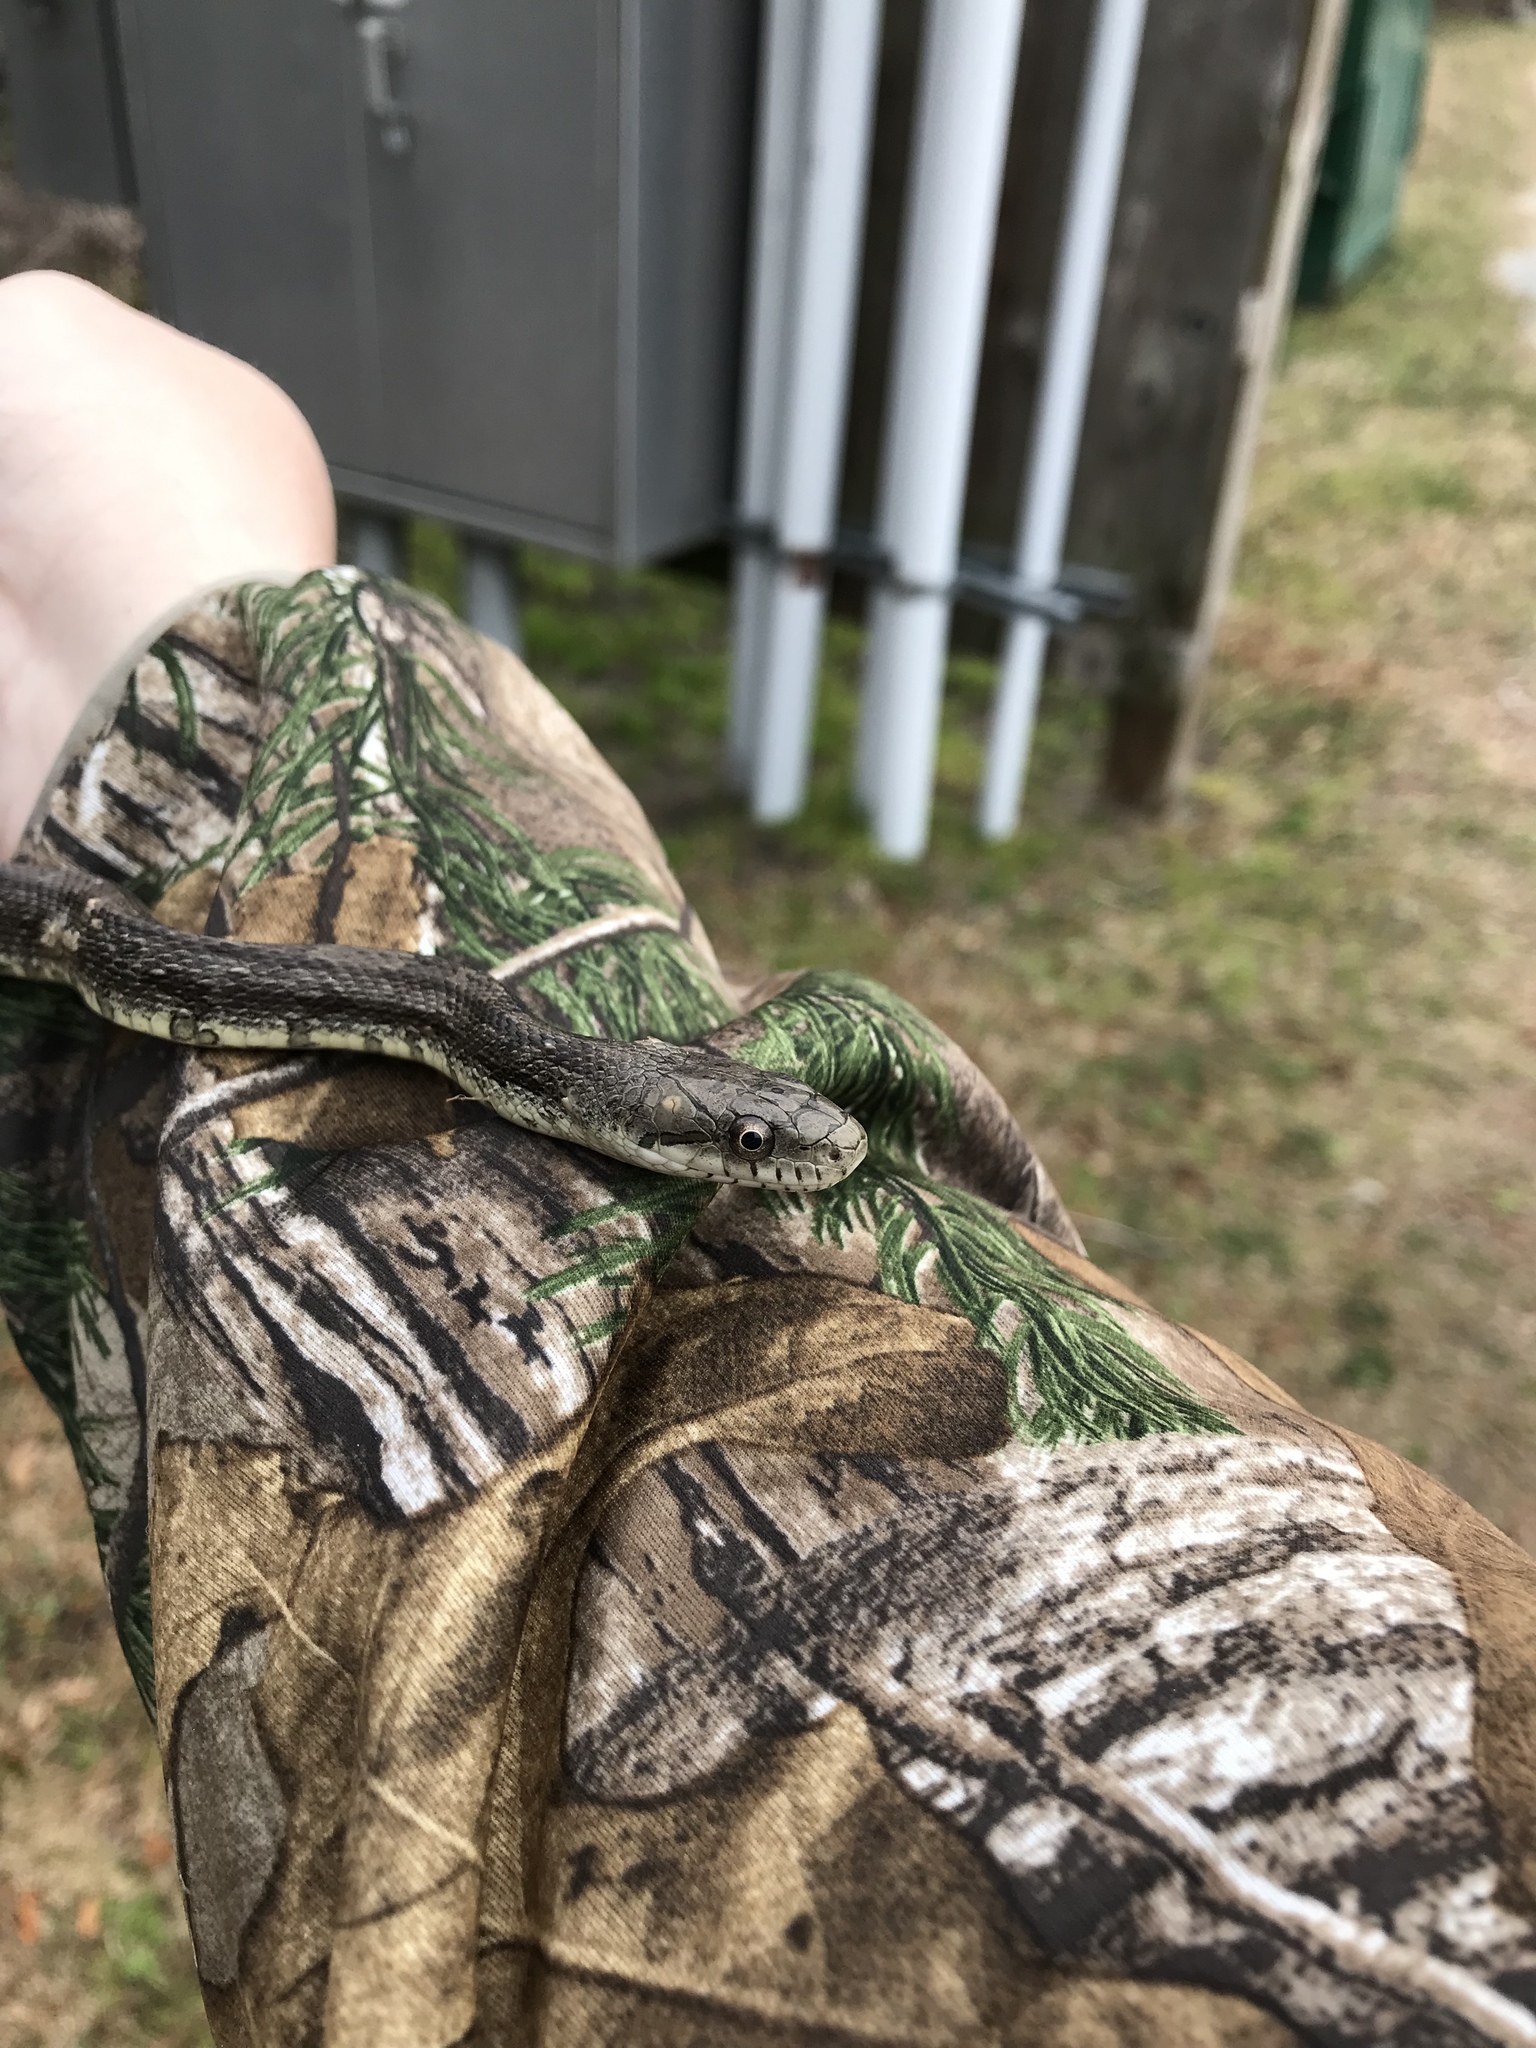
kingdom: Animalia
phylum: Chordata
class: Squamata
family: Colubridae
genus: Pantherophis
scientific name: Pantherophis alleghaniensis
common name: Eastern rat snake
